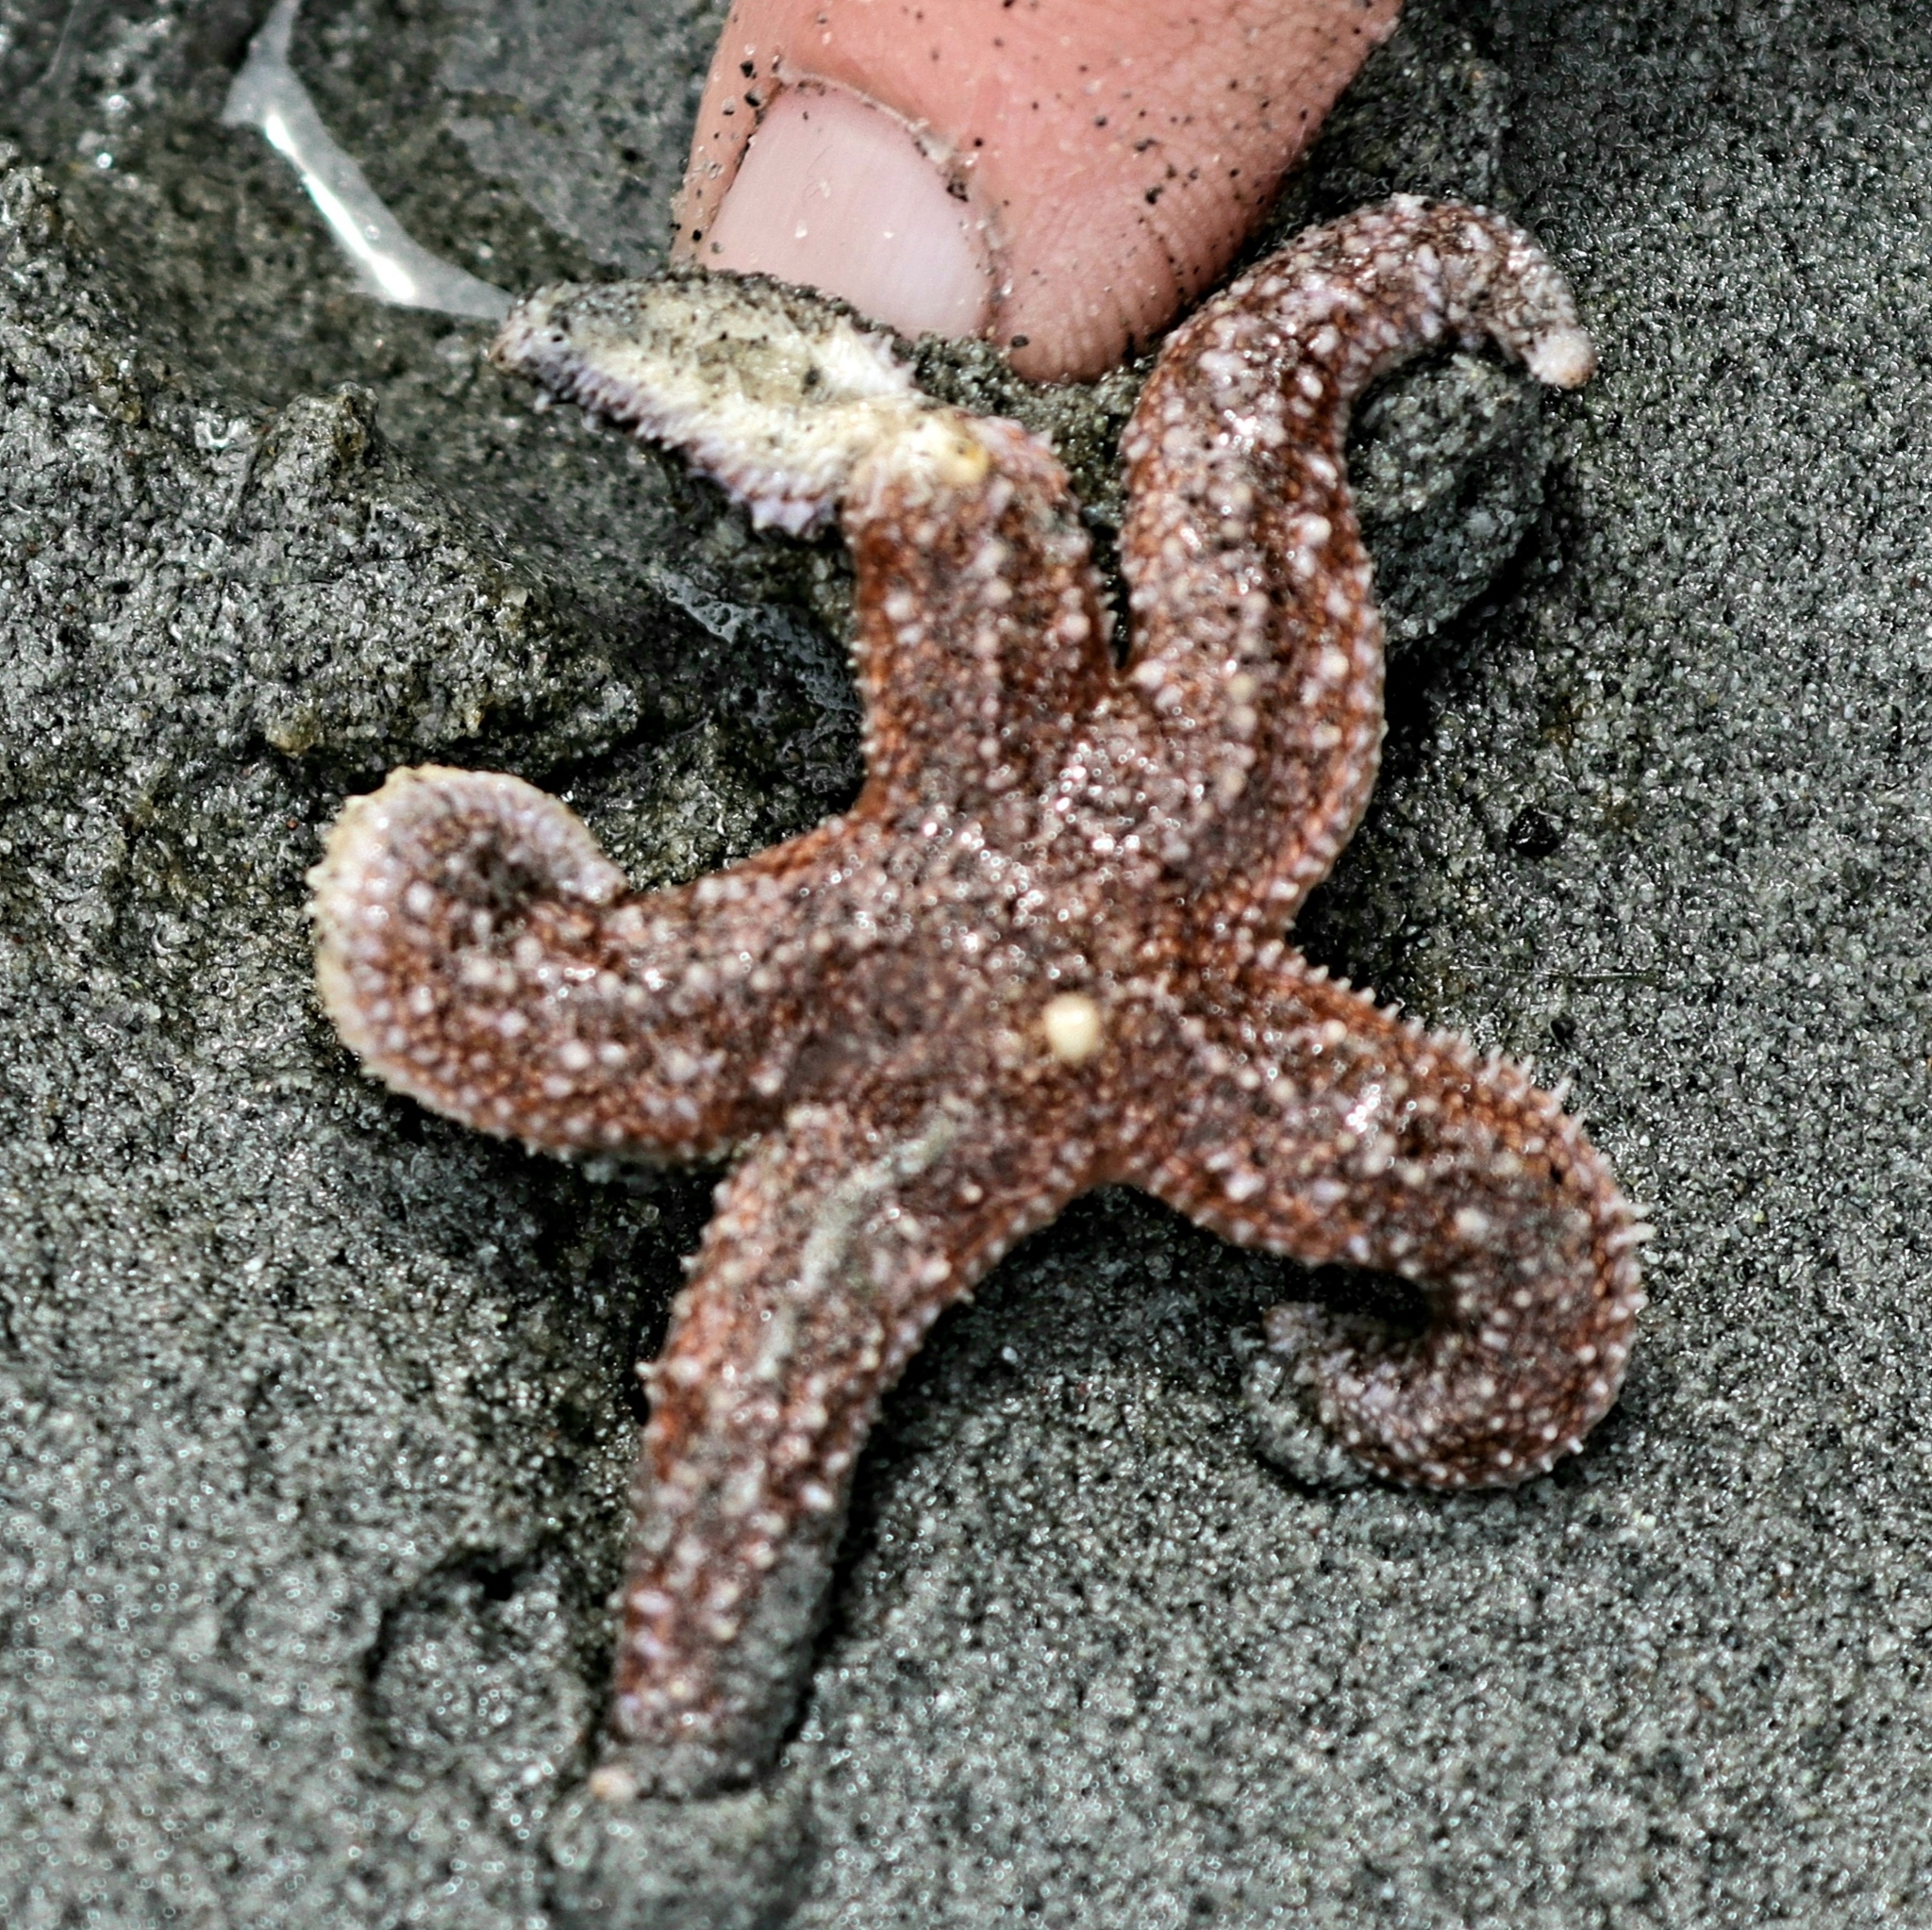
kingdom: Animalia
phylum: Echinodermata
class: Asteroidea
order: Forcipulatida
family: Asteriidae
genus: Evasterias
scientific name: Evasterias troschelii
